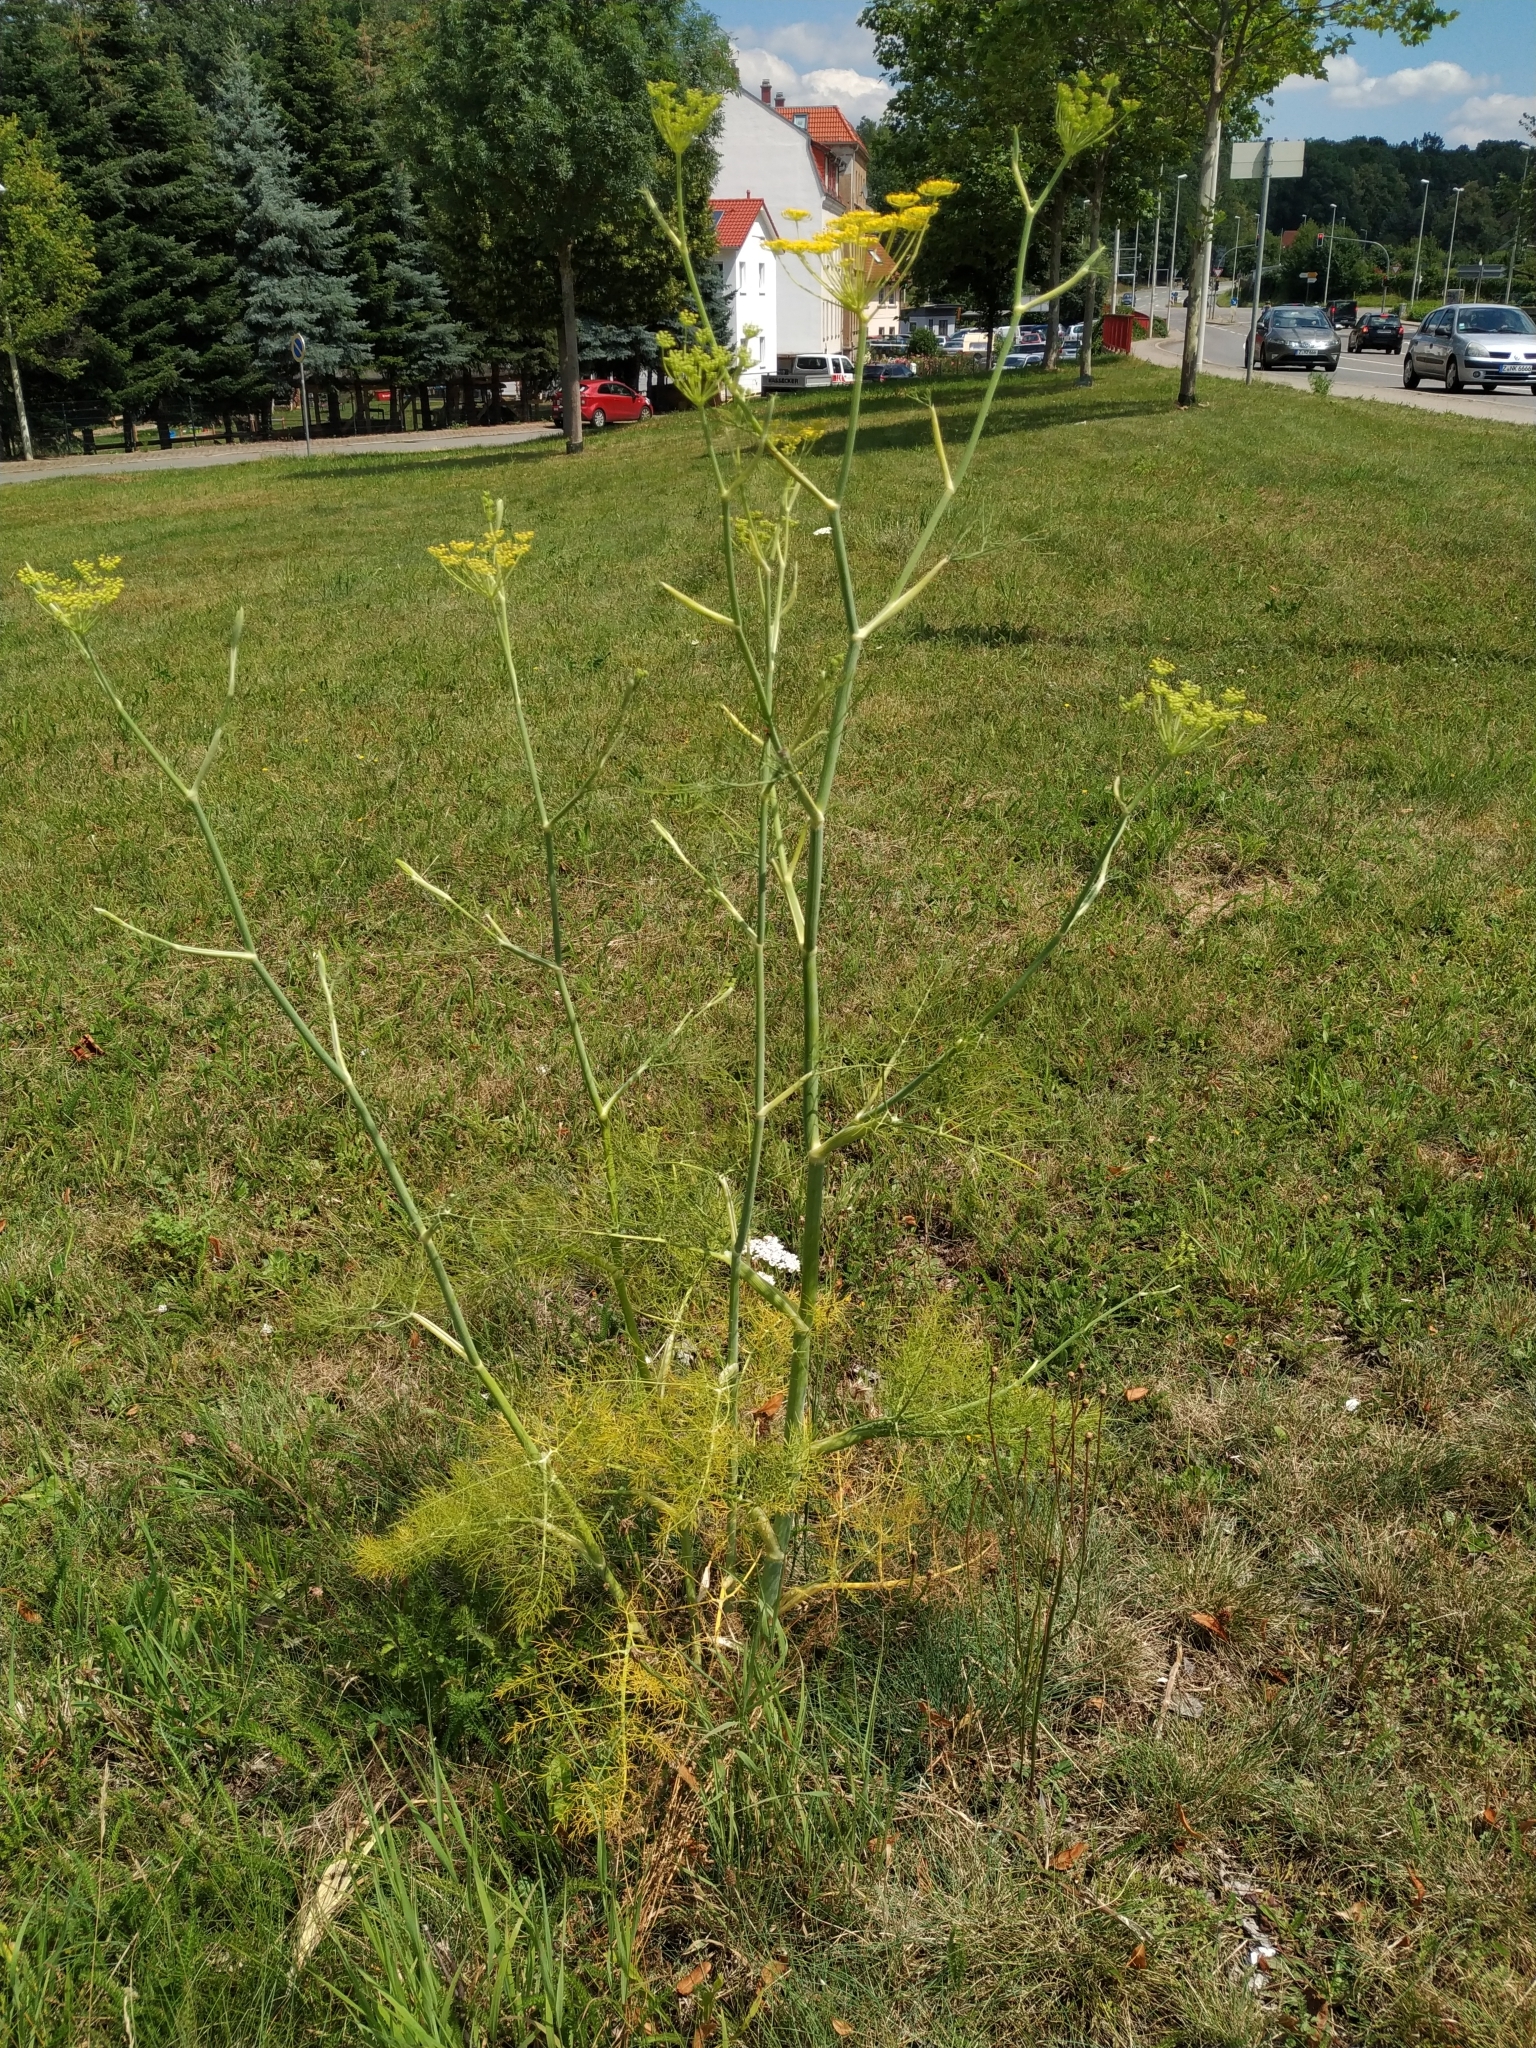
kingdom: Plantae
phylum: Tracheophyta
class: Magnoliopsida
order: Apiales
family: Apiaceae
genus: Foeniculum
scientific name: Foeniculum vulgare
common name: Fennel
